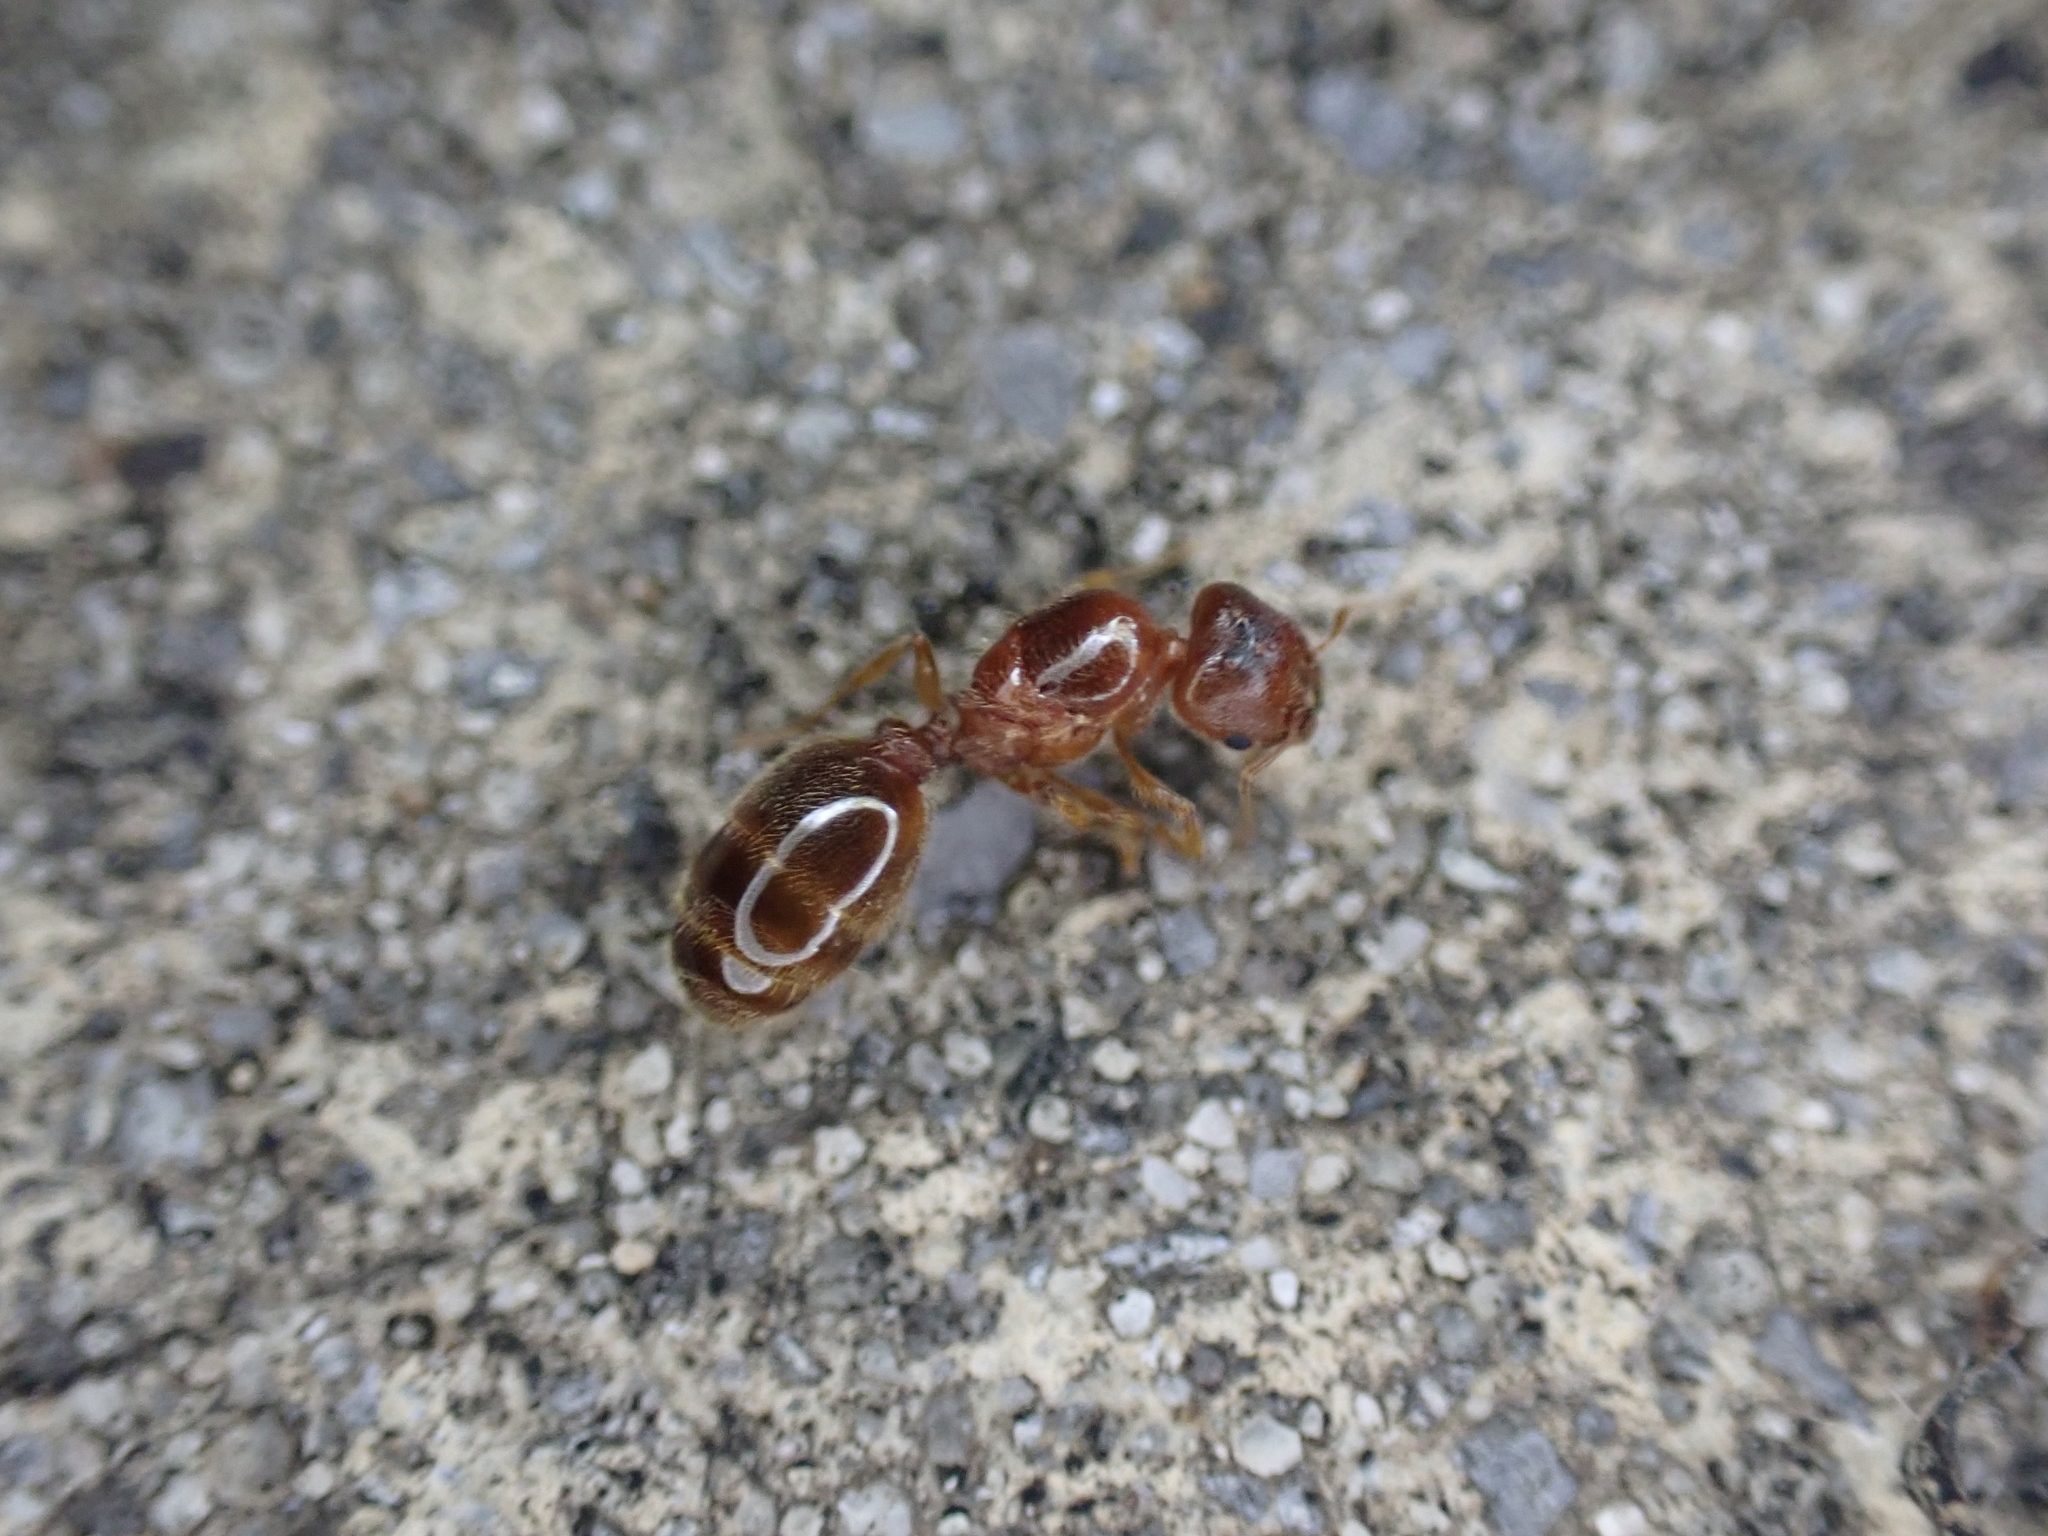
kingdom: Animalia
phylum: Arthropoda
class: Insecta
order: Hymenoptera
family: Formicidae
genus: Pheidole
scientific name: Pheidole bicarinata
